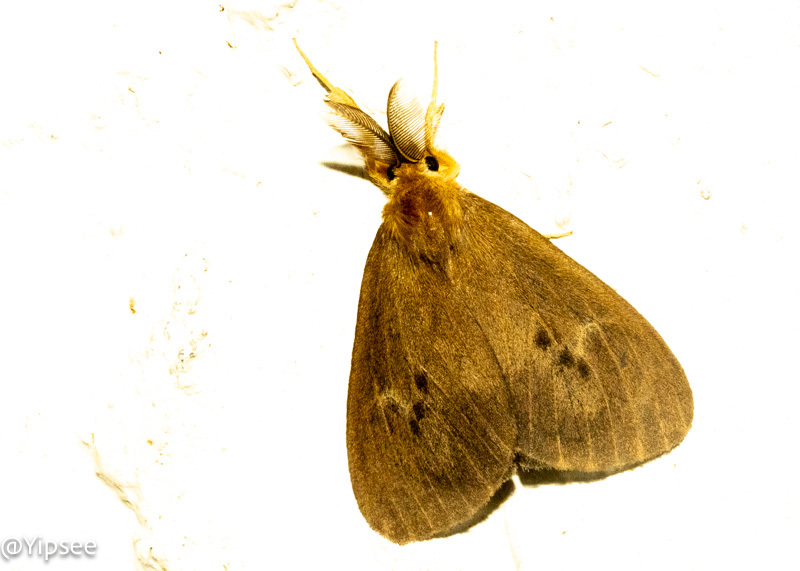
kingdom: Animalia
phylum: Arthropoda
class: Insecta
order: Lepidoptera
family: Erebidae
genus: Pantana
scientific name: Pantana visum
